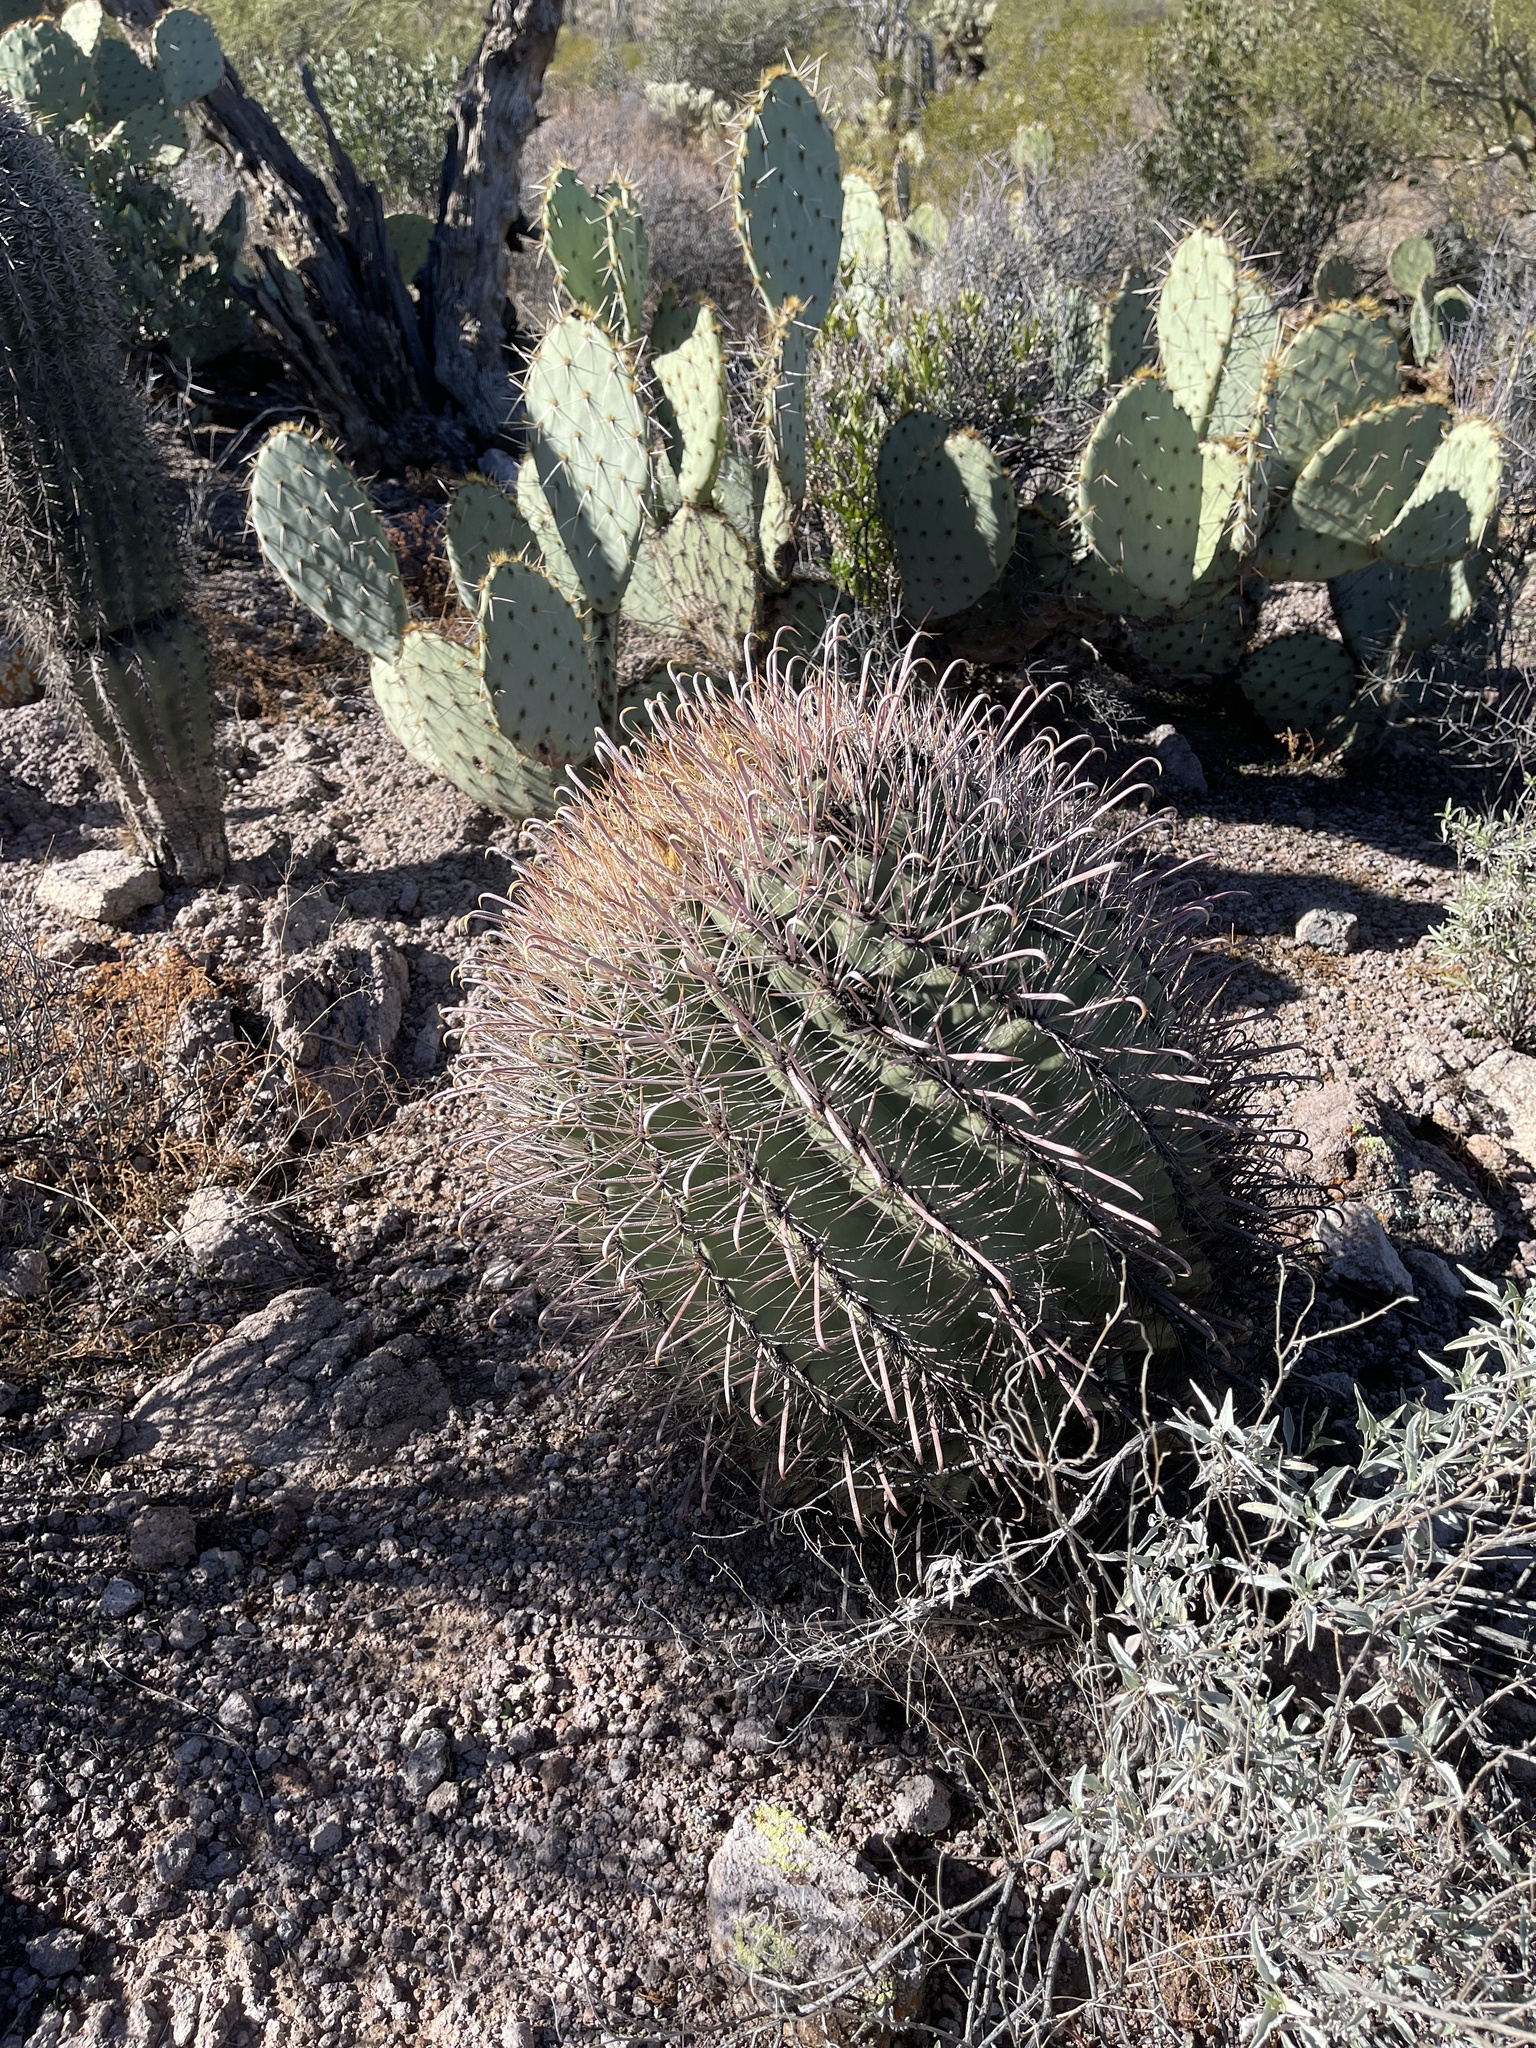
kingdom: Plantae
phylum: Tracheophyta
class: Magnoliopsida
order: Caryophyllales
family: Cactaceae
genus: Ferocactus
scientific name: Ferocactus wislizeni
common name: Candy barrel cactus
